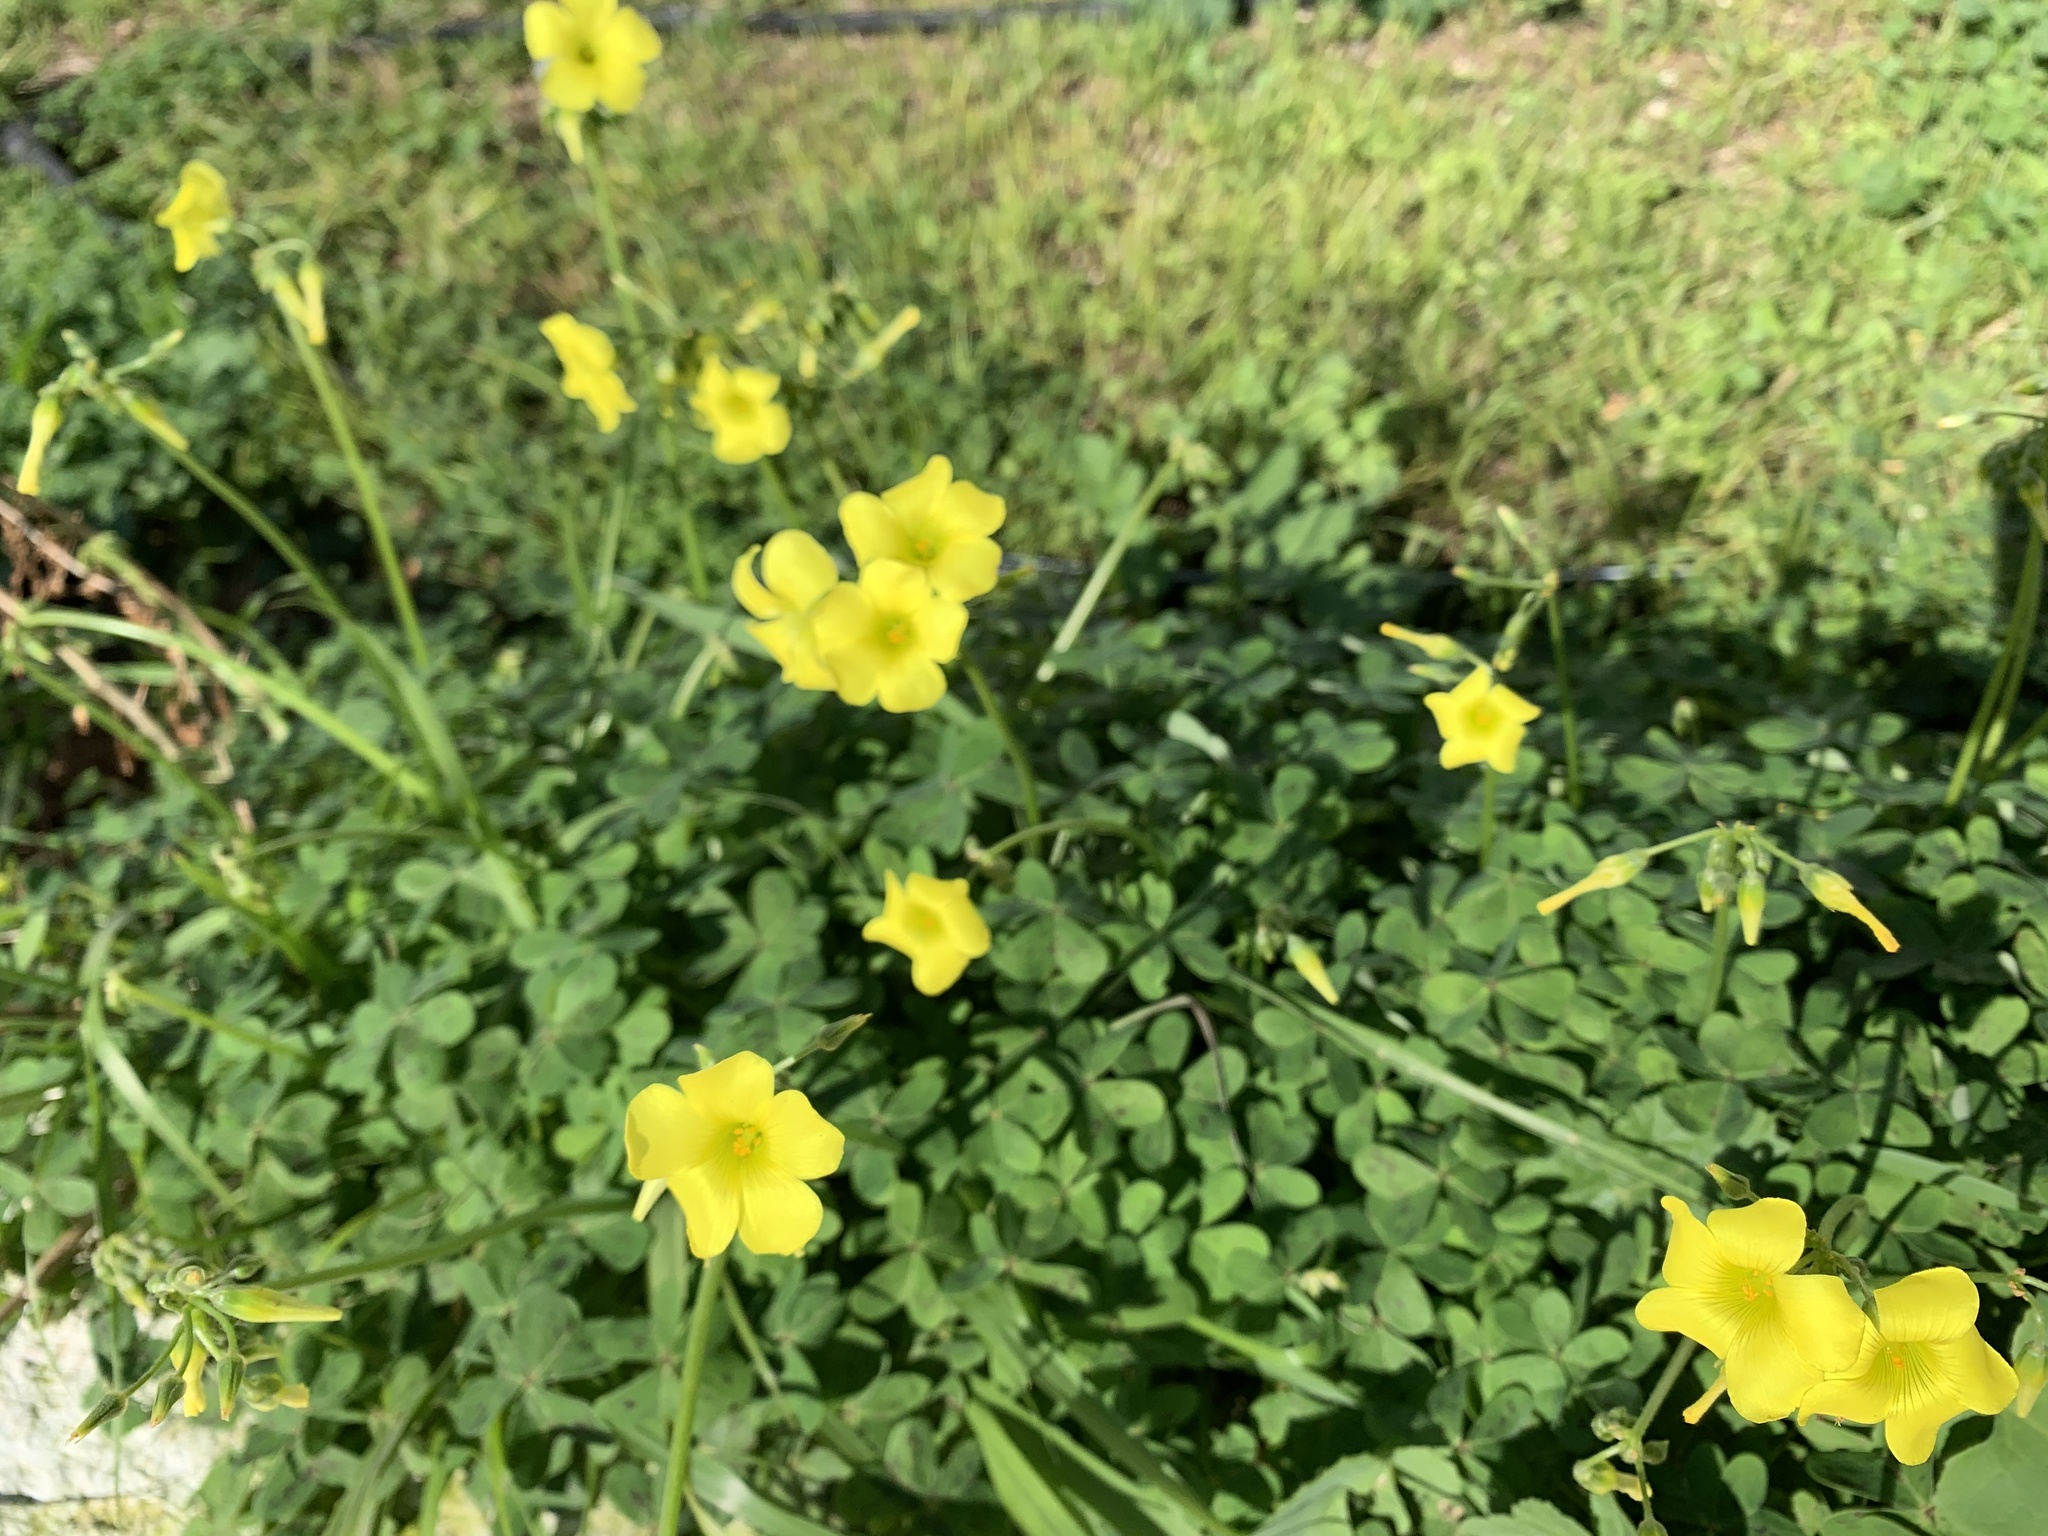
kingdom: Plantae
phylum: Tracheophyta
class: Magnoliopsida
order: Oxalidales
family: Oxalidaceae
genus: Oxalis
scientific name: Oxalis pes-caprae
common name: Bermuda-buttercup
